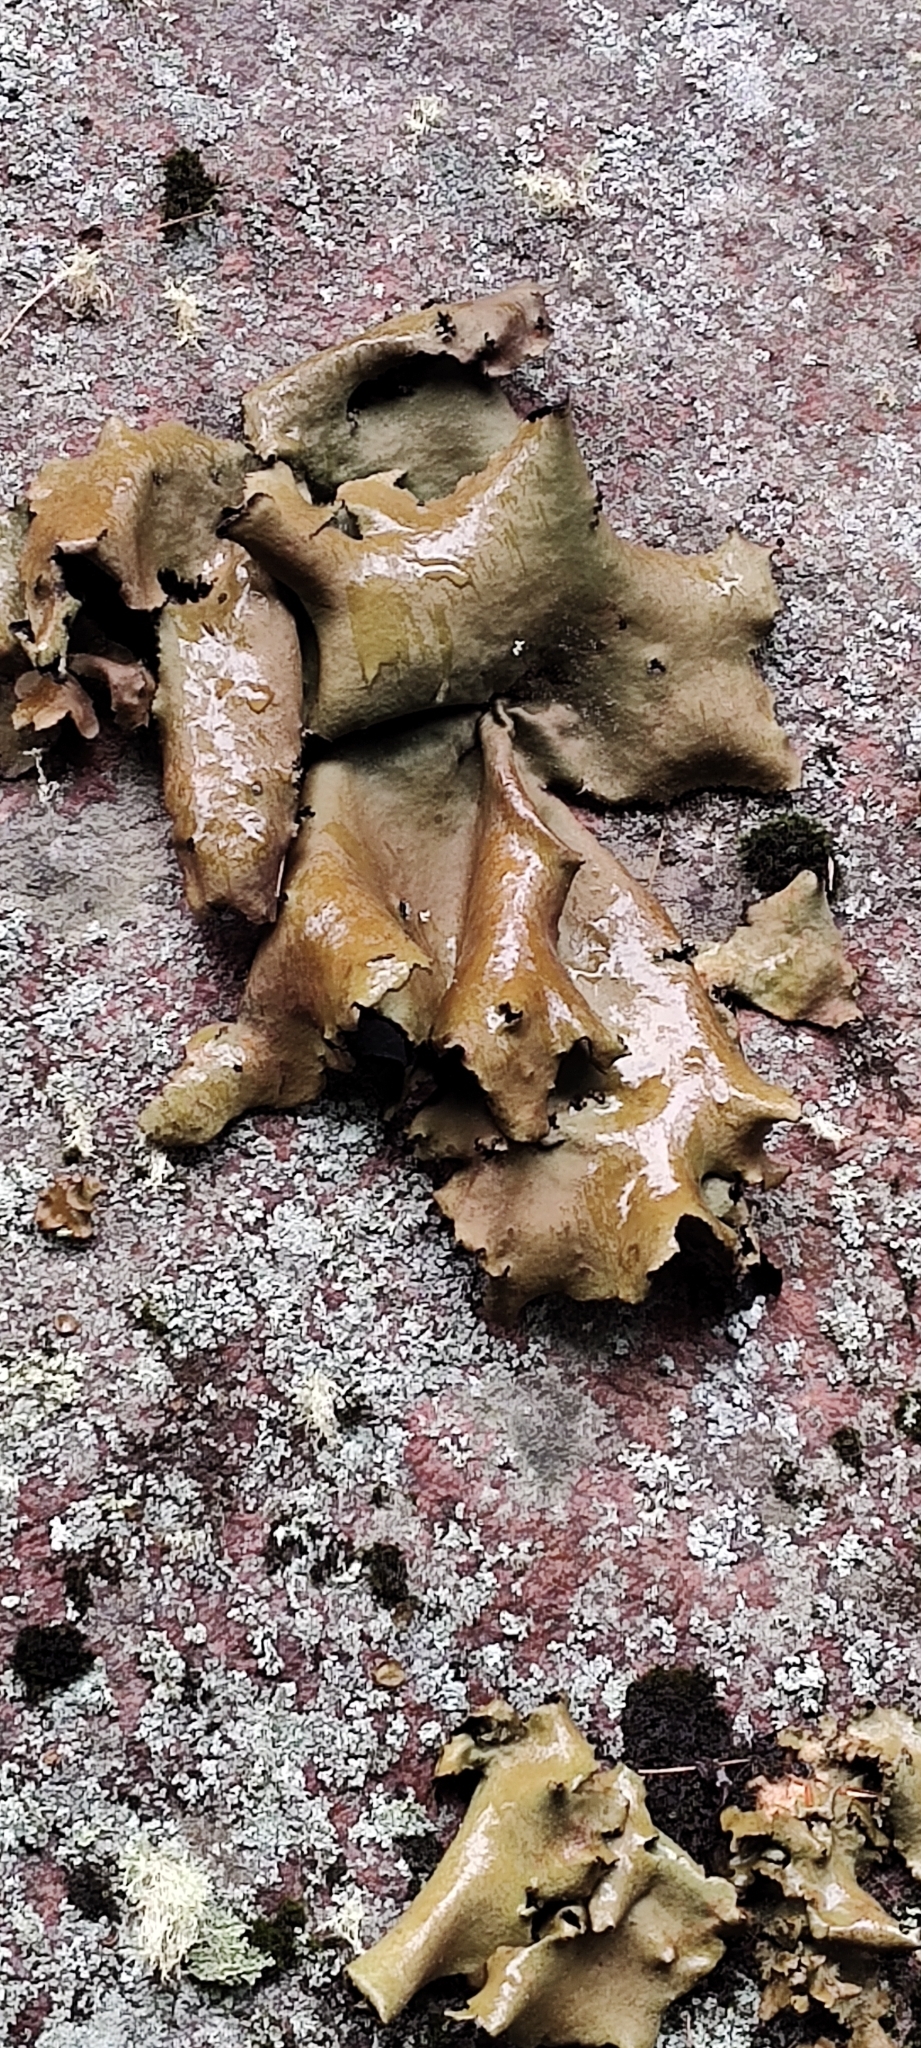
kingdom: Fungi
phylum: Ascomycota
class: Lecanoromycetes
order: Umbilicariales
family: Umbilicariaceae
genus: Umbilicaria
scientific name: Umbilicaria mammulata
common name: Smooth rock tripe
